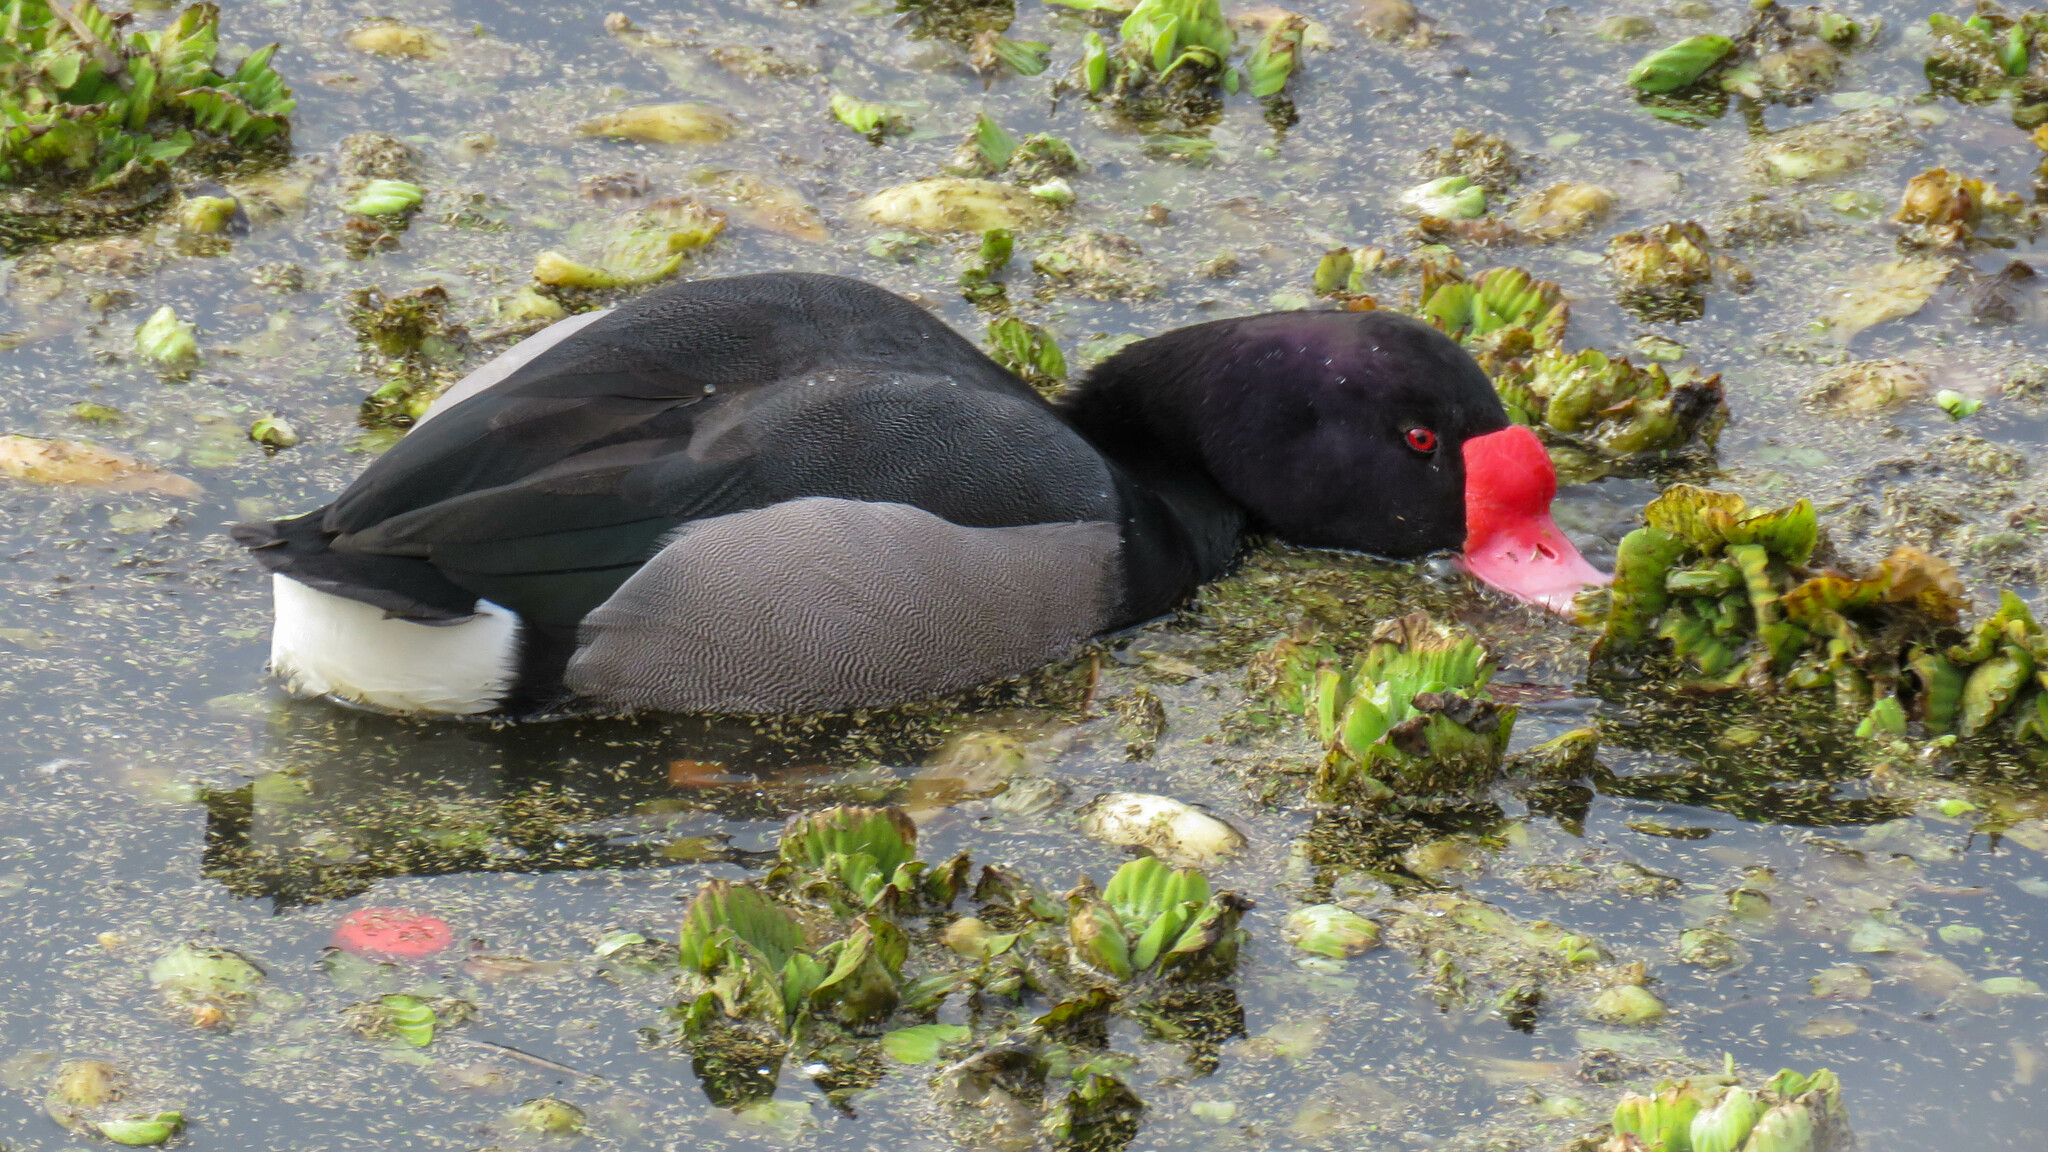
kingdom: Animalia
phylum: Chordata
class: Aves
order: Anseriformes
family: Anatidae
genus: Netta
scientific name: Netta peposaca
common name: Rosy-billed pochard
